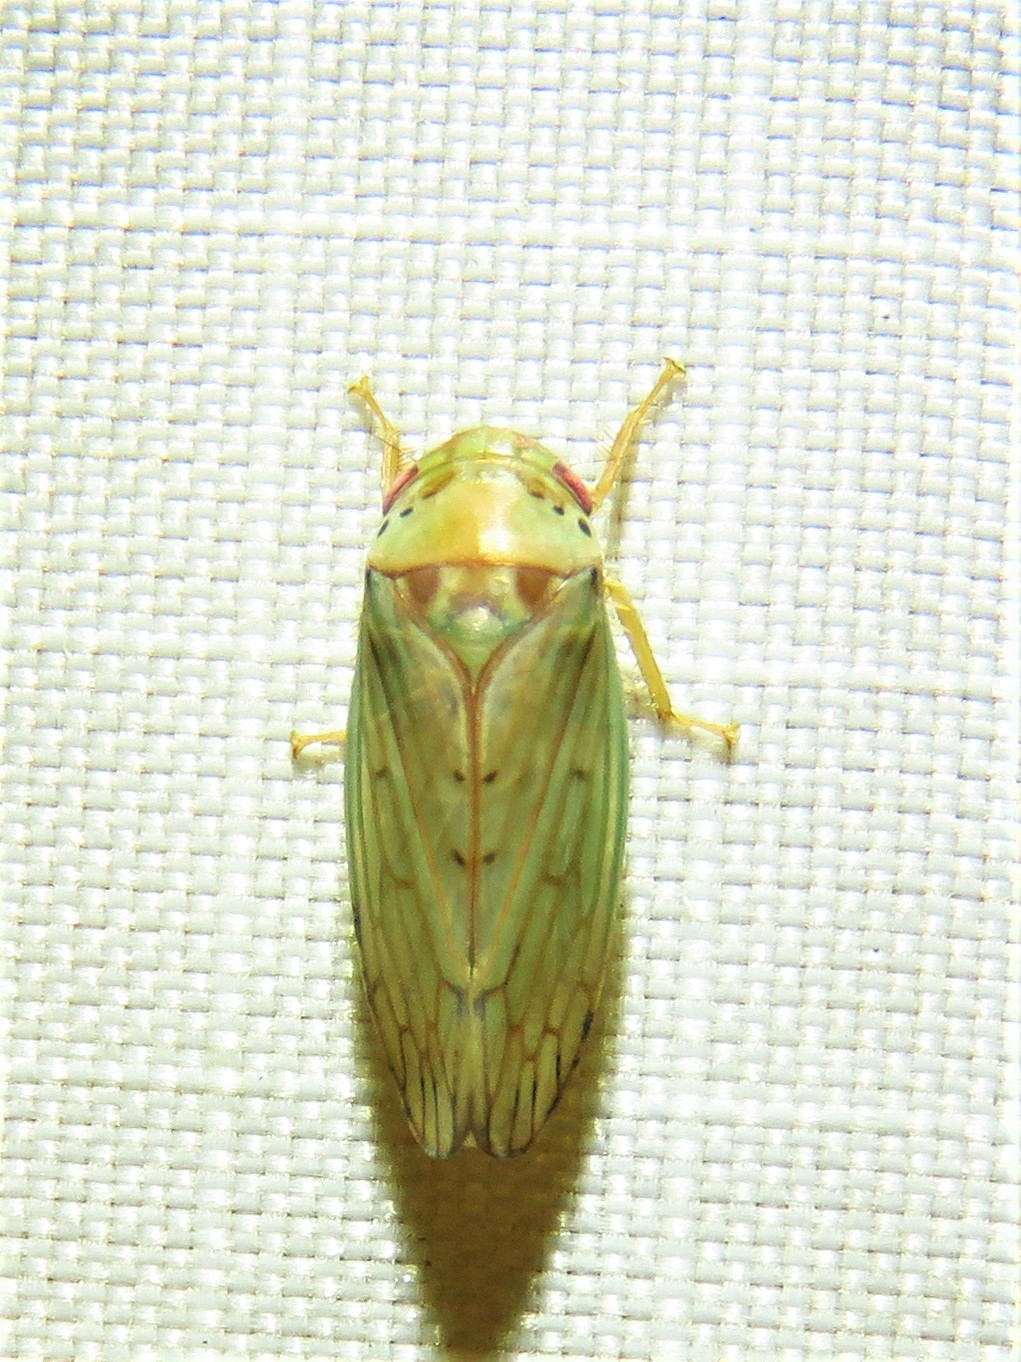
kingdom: Animalia
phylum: Arthropoda
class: Insecta
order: Hemiptera
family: Cicadellidae
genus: Polana
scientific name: Polana quadrinotata
